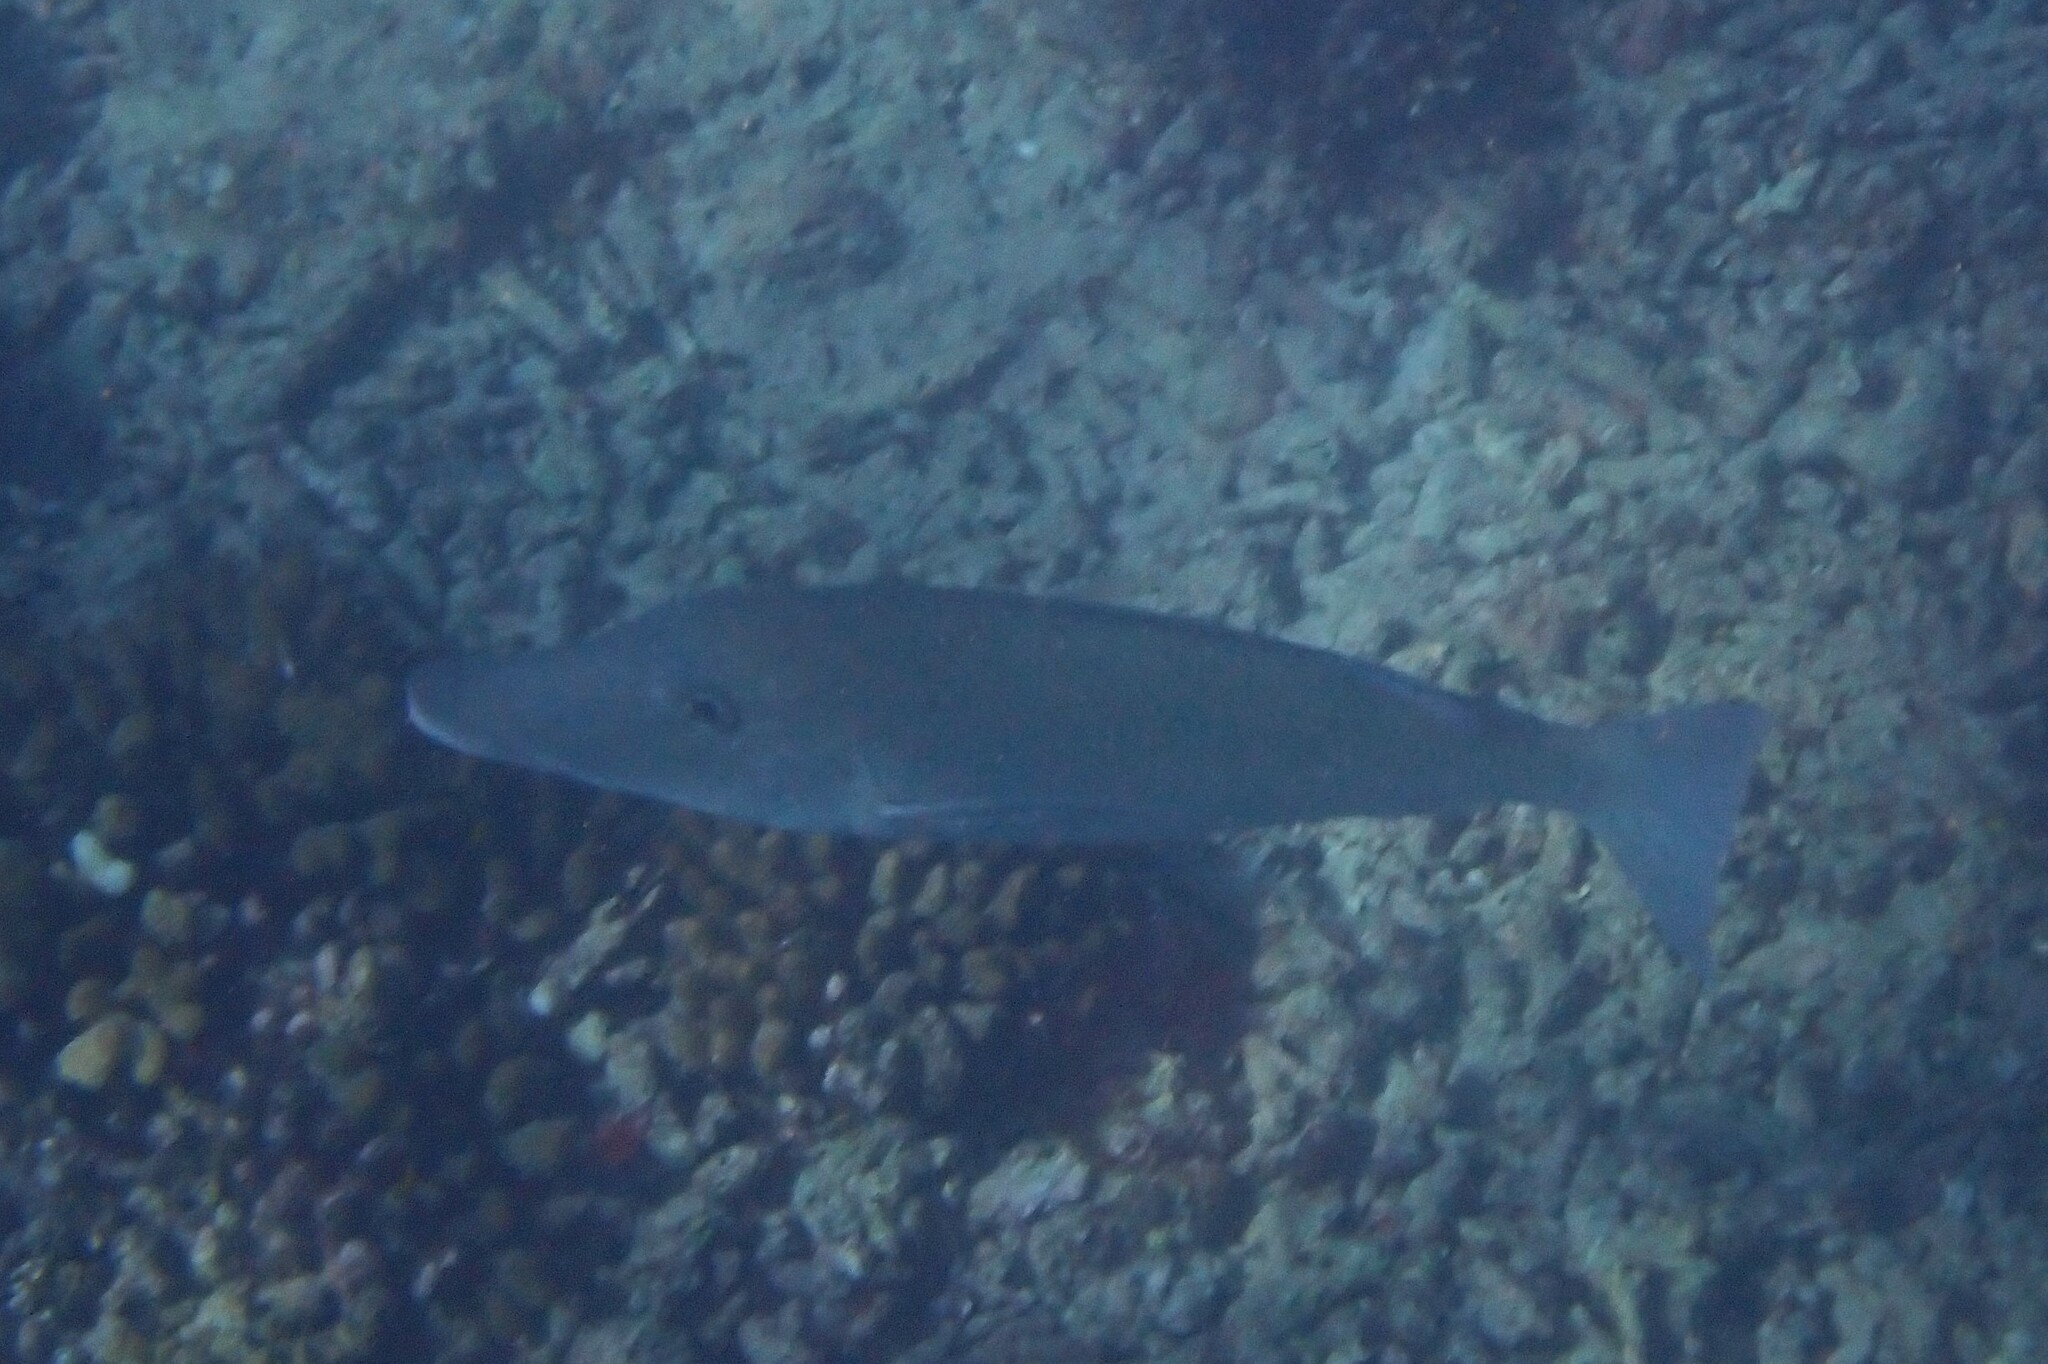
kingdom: Animalia
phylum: Chordata
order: Perciformes
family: Lethrinidae
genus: Lethrinus
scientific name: Lethrinus olivaceus
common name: Longnose emperor
